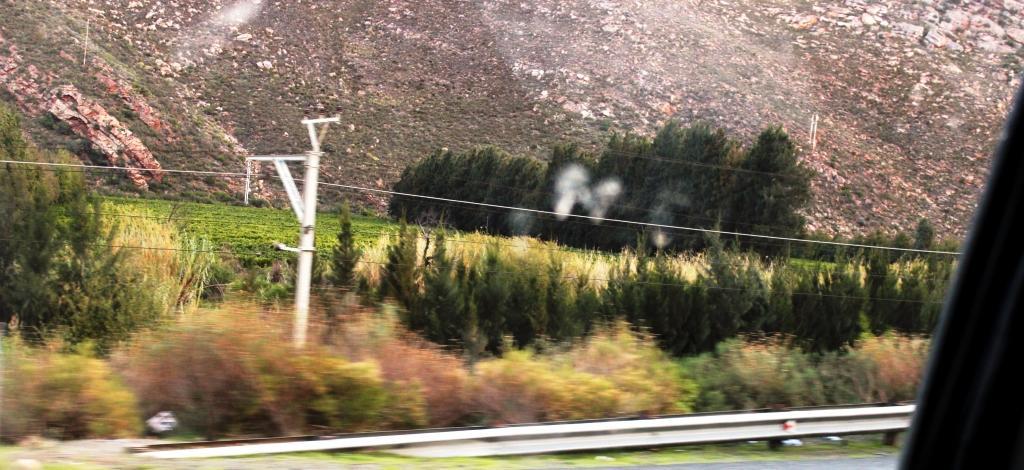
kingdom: Plantae
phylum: Tracheophyta
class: Magnoliopsida
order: Fagales
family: Casuarinaceae
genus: Casuarina
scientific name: Casuarina cunninghamiana
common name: River sheoak
